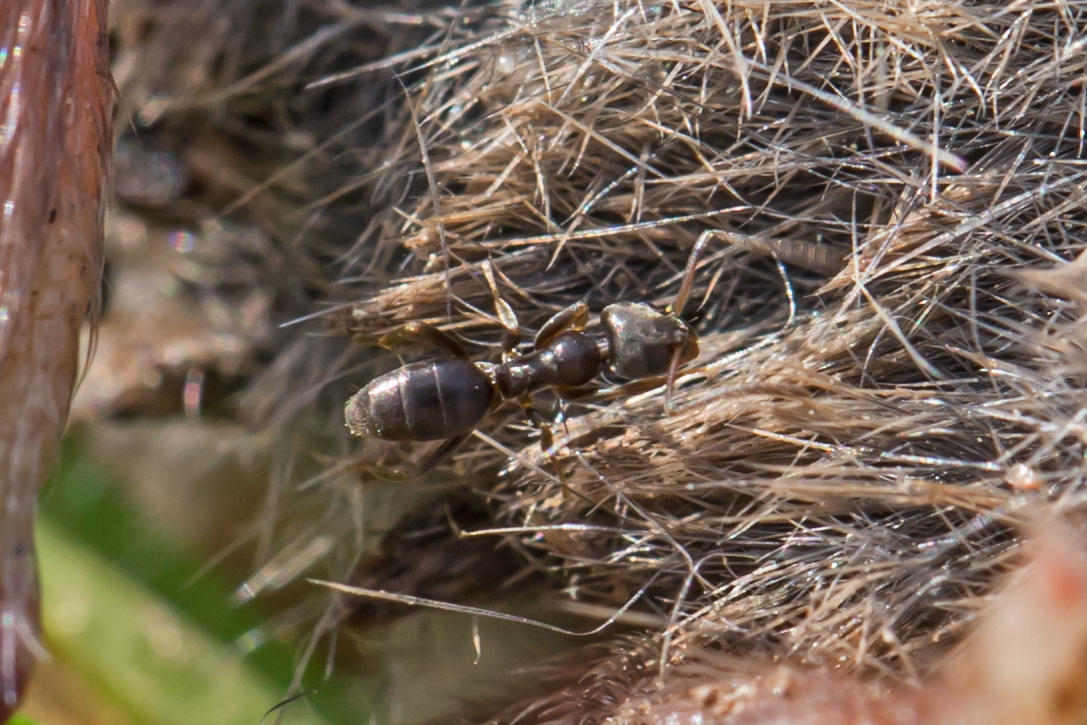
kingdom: Animalia
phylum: Arthropoda
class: Insecta
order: Hymenoptera
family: Formicidae
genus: Tapinoma
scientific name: Tapinoma sessile
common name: Odorous house ant
